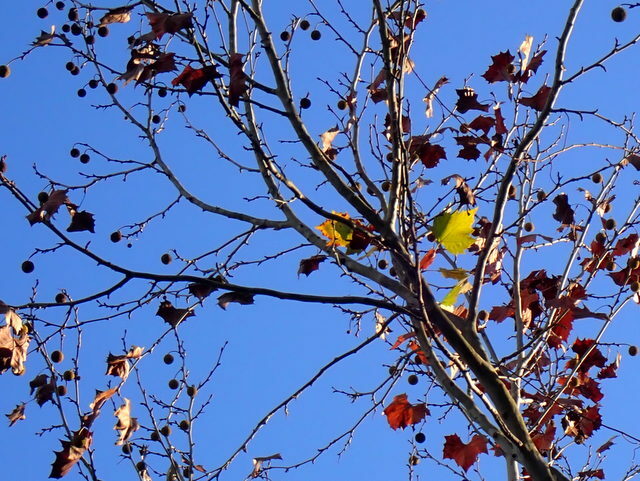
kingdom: Plantae
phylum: Tracheophyta
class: Magnoliopsida
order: Proteales
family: Platanaceae
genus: Platanus
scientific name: Platanus occidentalis
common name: American sycamore
